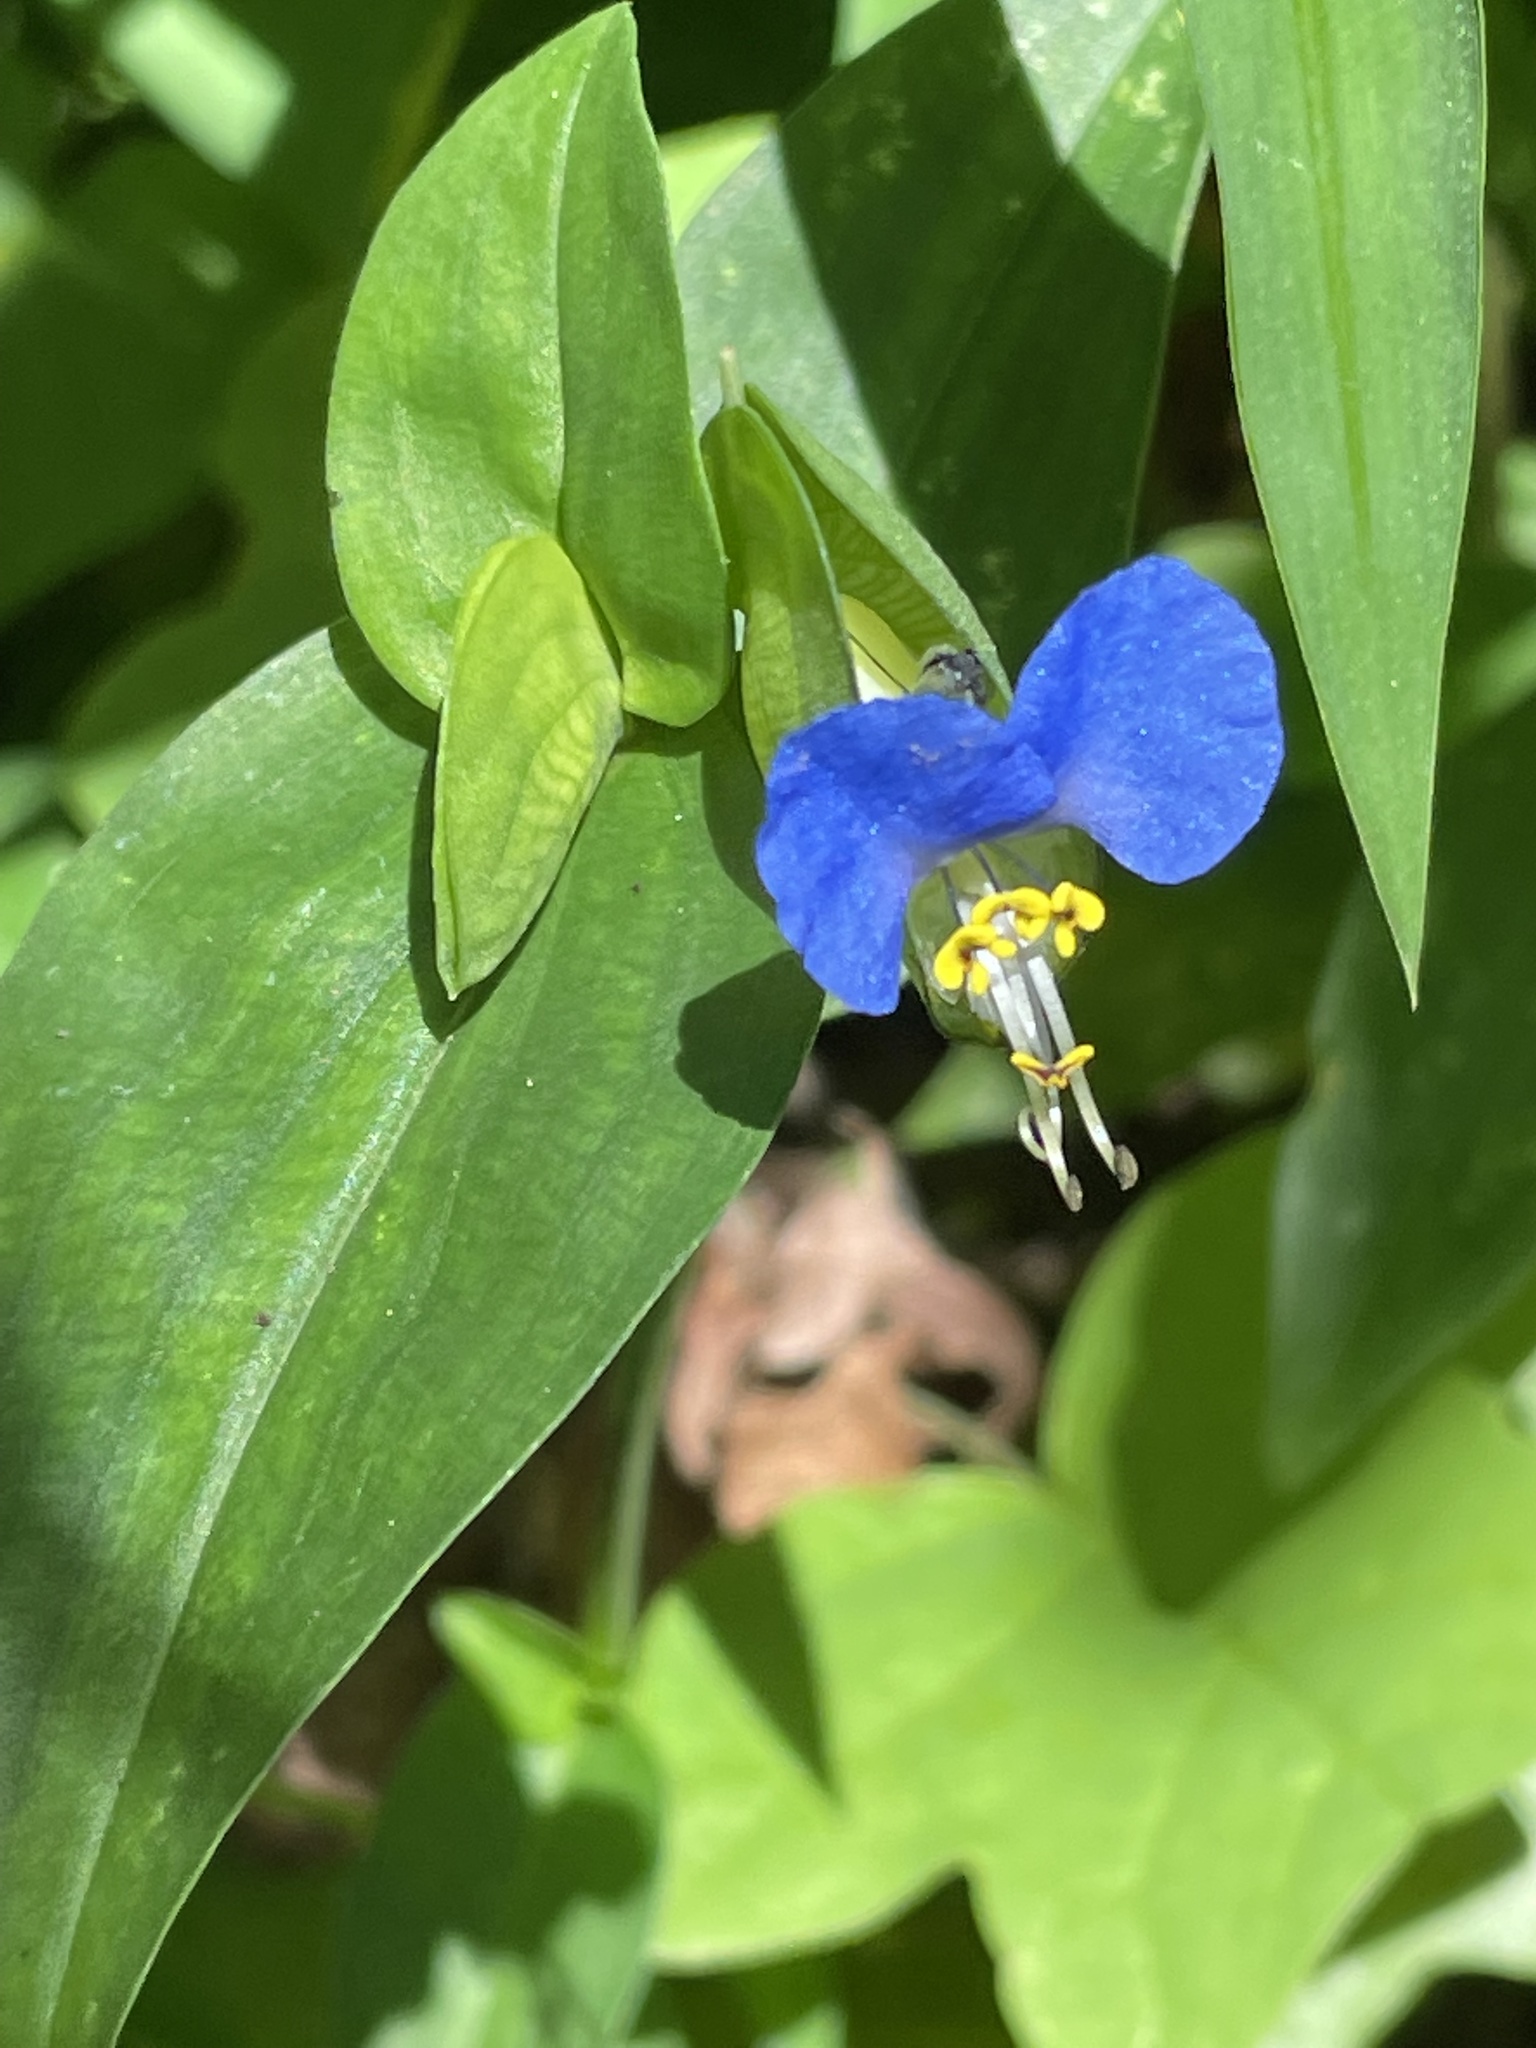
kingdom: Plantae
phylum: Tracheophyta
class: Liliopsida
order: Commelinales
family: Commelinaceae
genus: Commelina
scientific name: Commelina communis
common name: Asiatic dayflower
